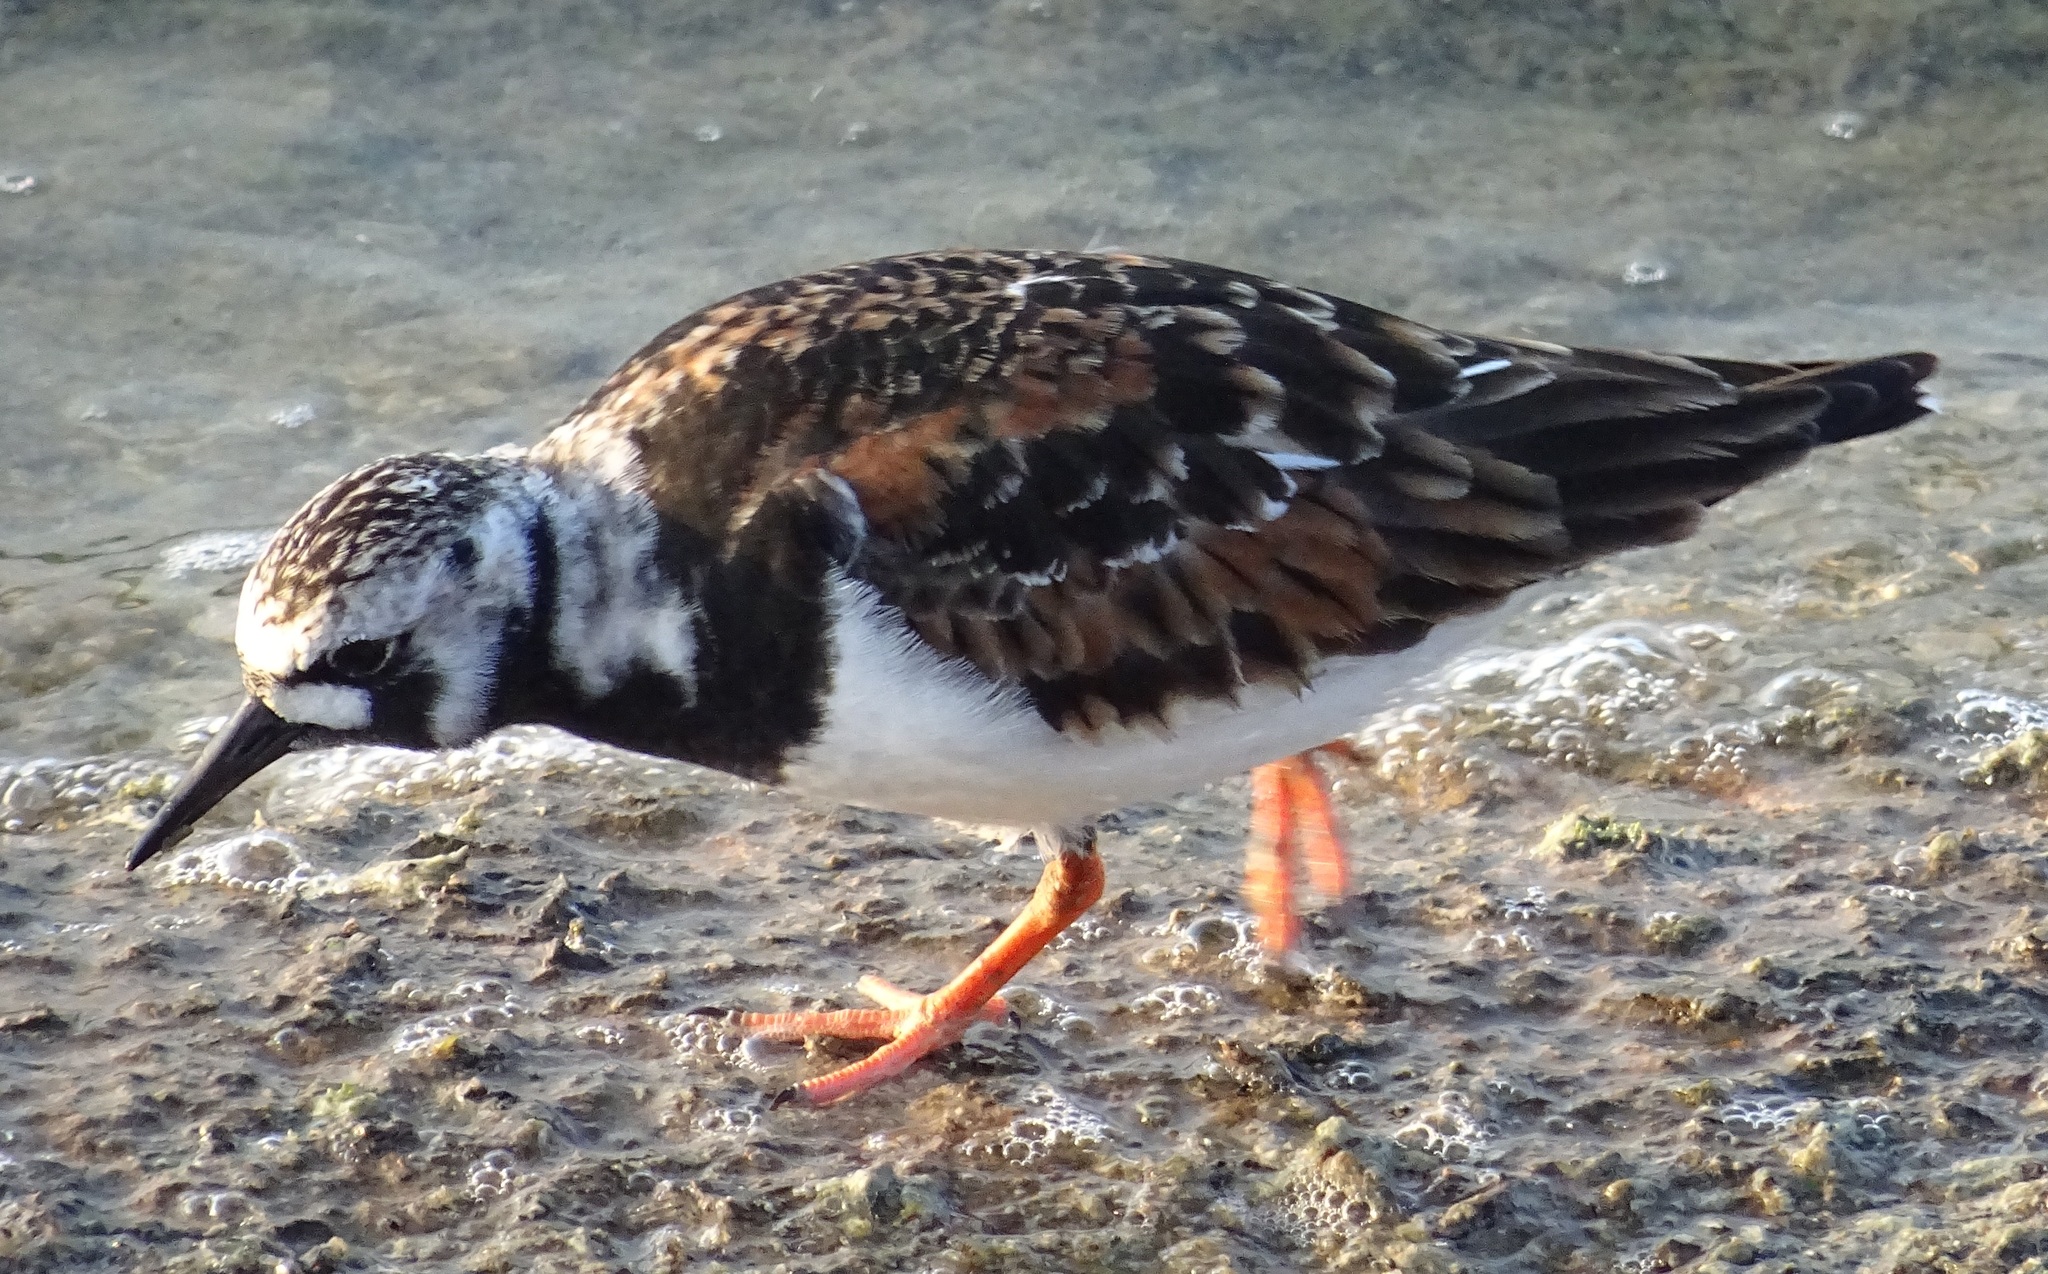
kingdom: Animalia
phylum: Chordata
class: Aves
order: Charadriiformes
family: Scolopacidae
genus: Arenaria
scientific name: Arenaria interpres
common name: Ruddy turnstone
